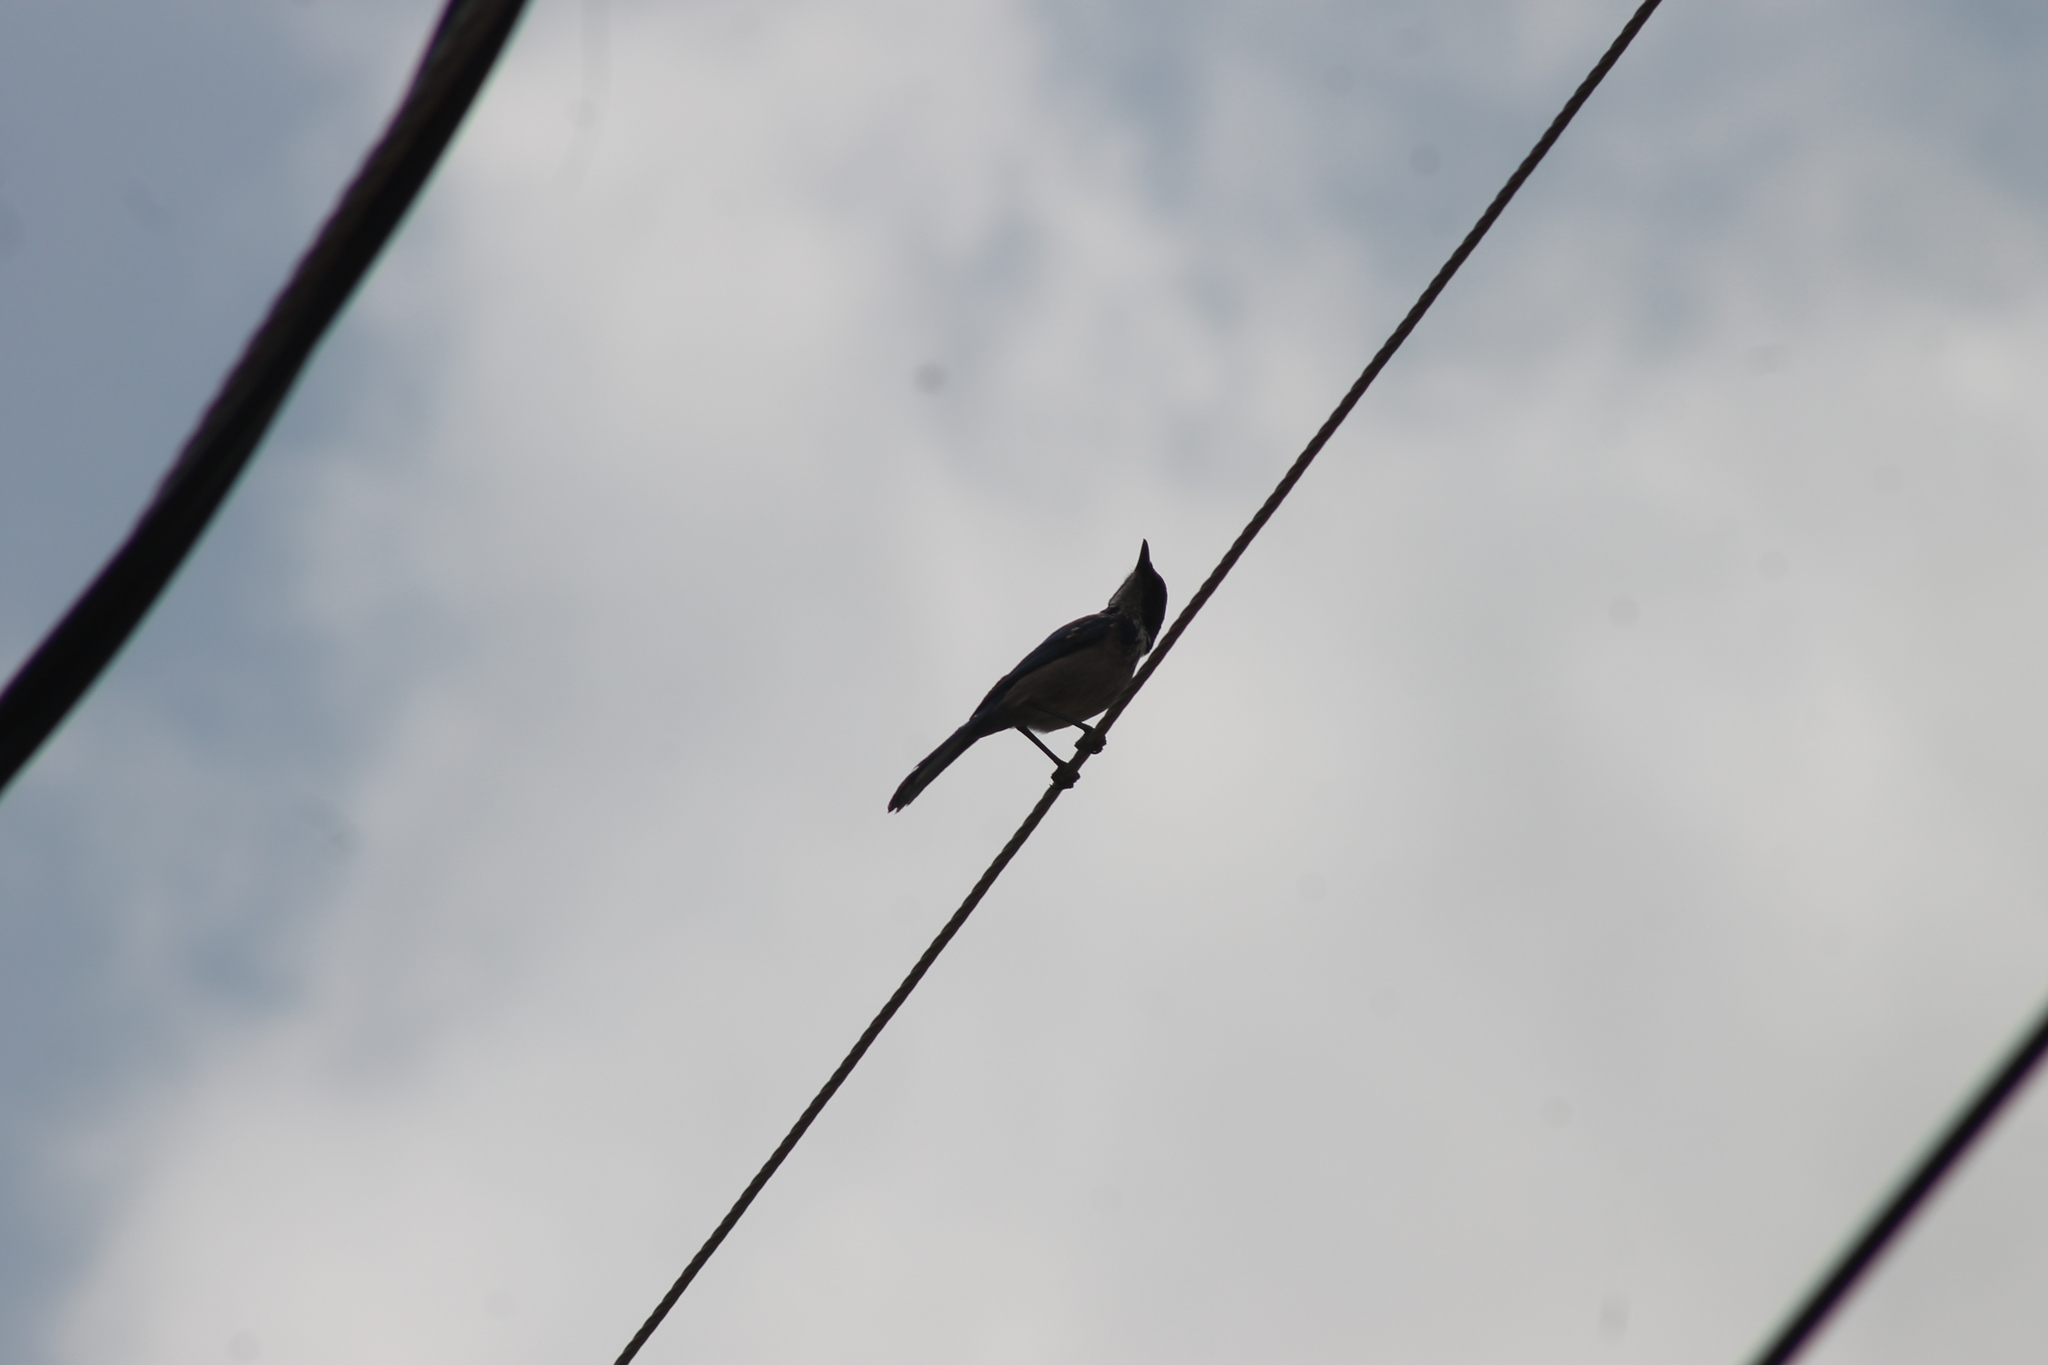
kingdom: Animalia
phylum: Chordata
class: Aves
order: Passeriformes
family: Corvidae
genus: Aphelocoma
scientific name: Aphelocoma californica
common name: California scrub-jay
